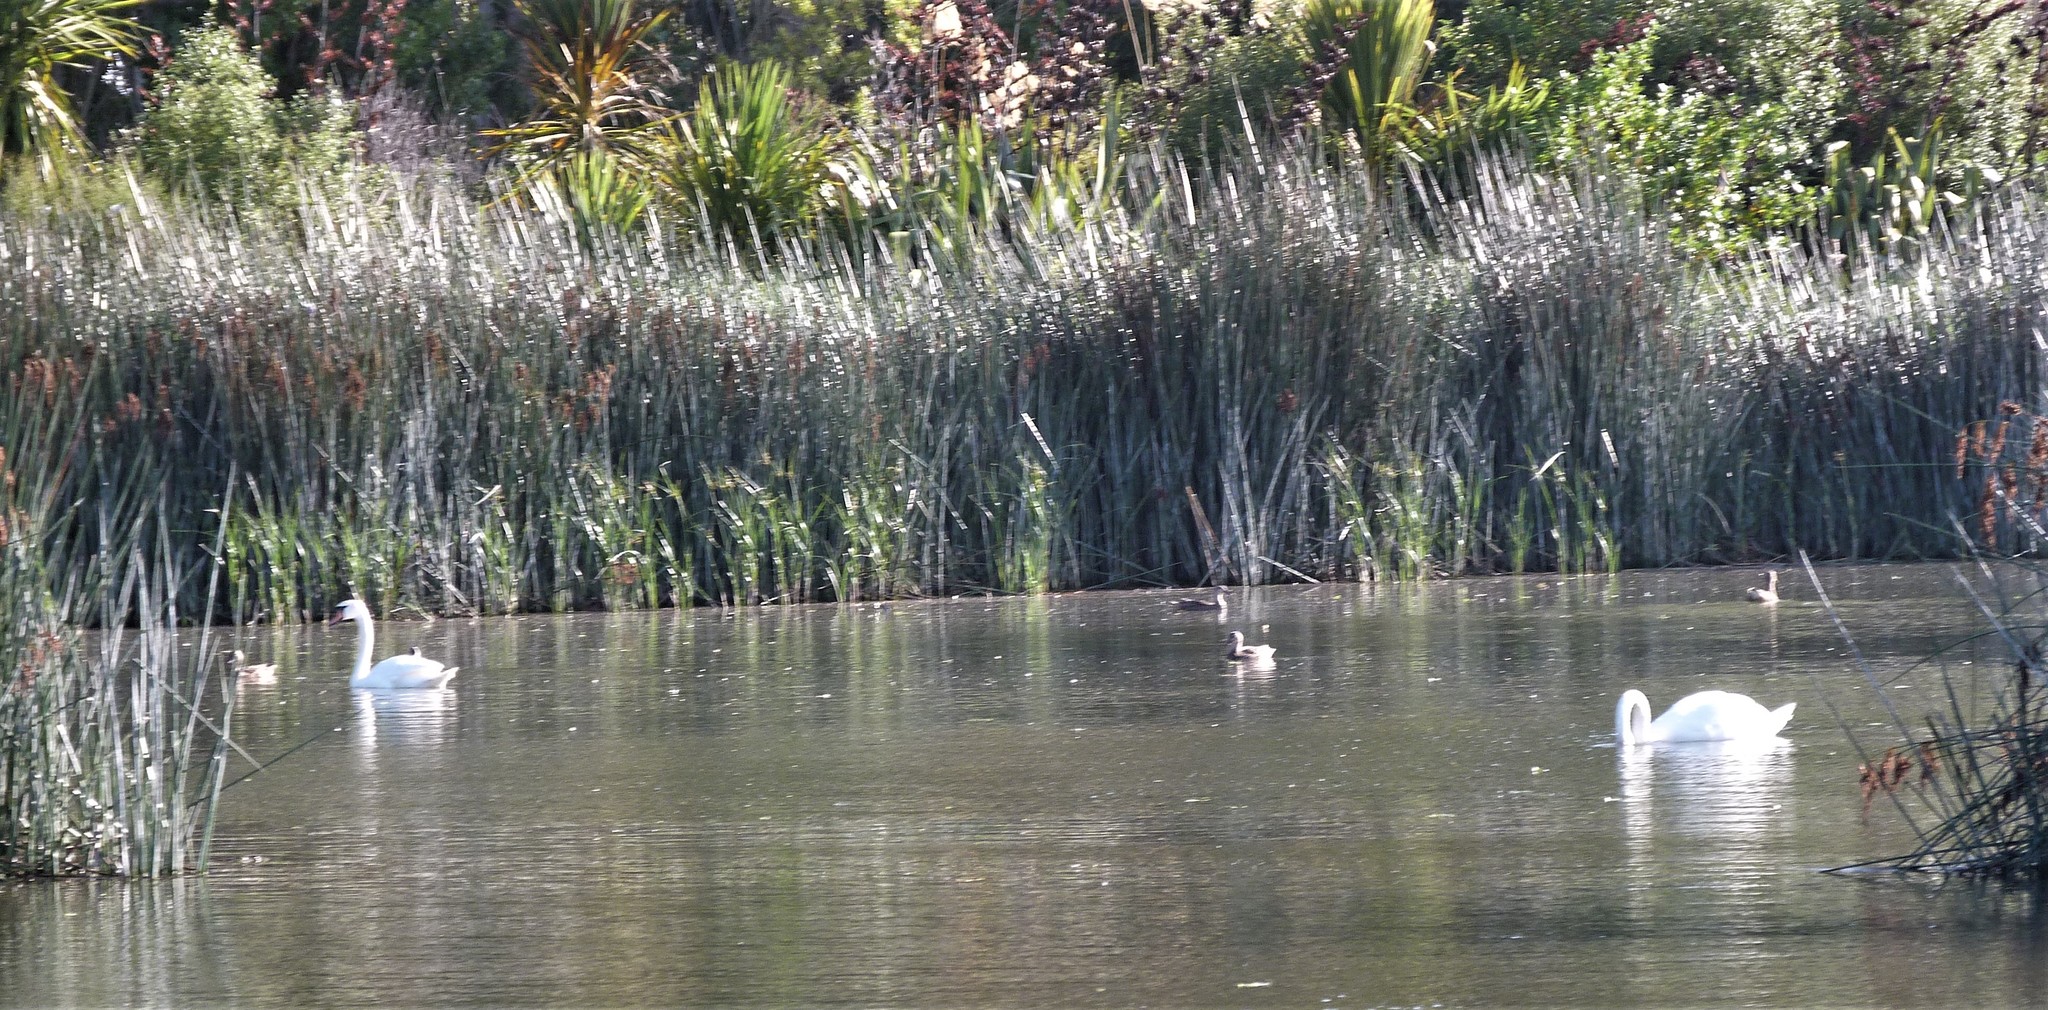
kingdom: Animalia
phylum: Chordata
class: Aves
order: Anseriformes
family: Anatidae
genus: Cygnus
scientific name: Cygnus olor
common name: Mute swan
